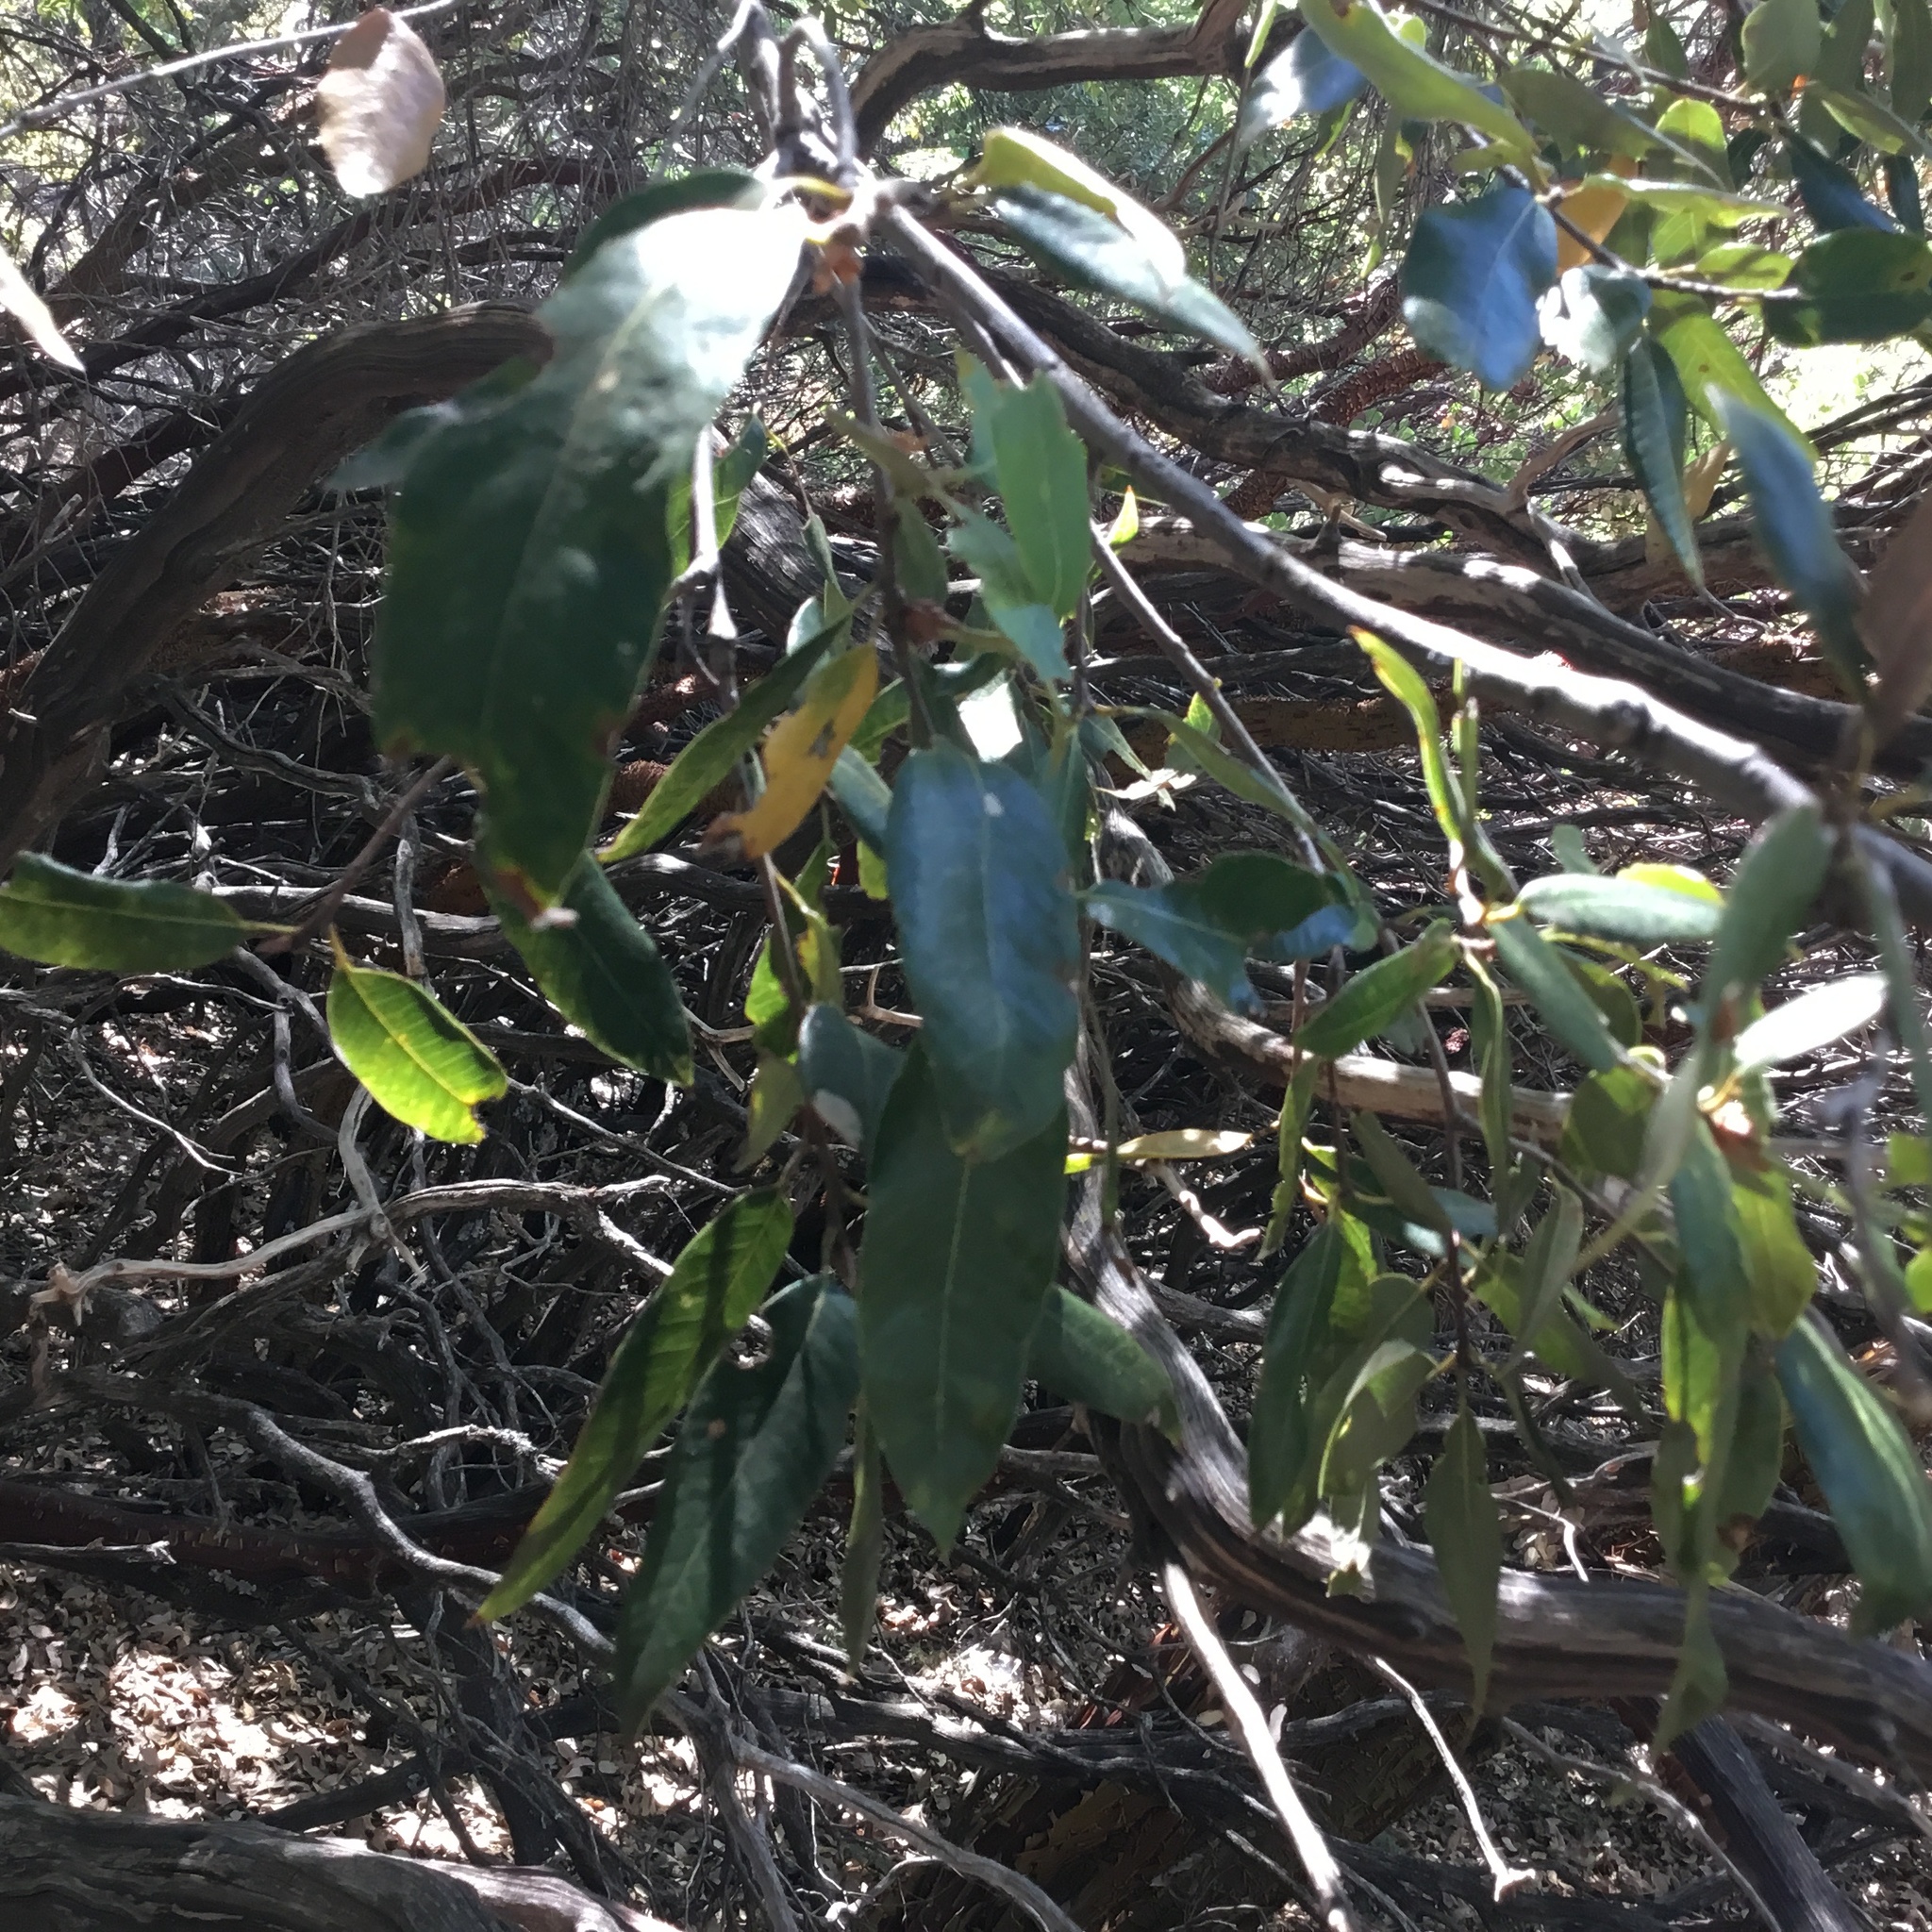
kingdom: Plantae
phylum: Tracheophyta
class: Magnoliopsida
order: Fagales
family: Fagaceae
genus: Quercus
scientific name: Quercus chrysolepis
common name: Canyon live oak
